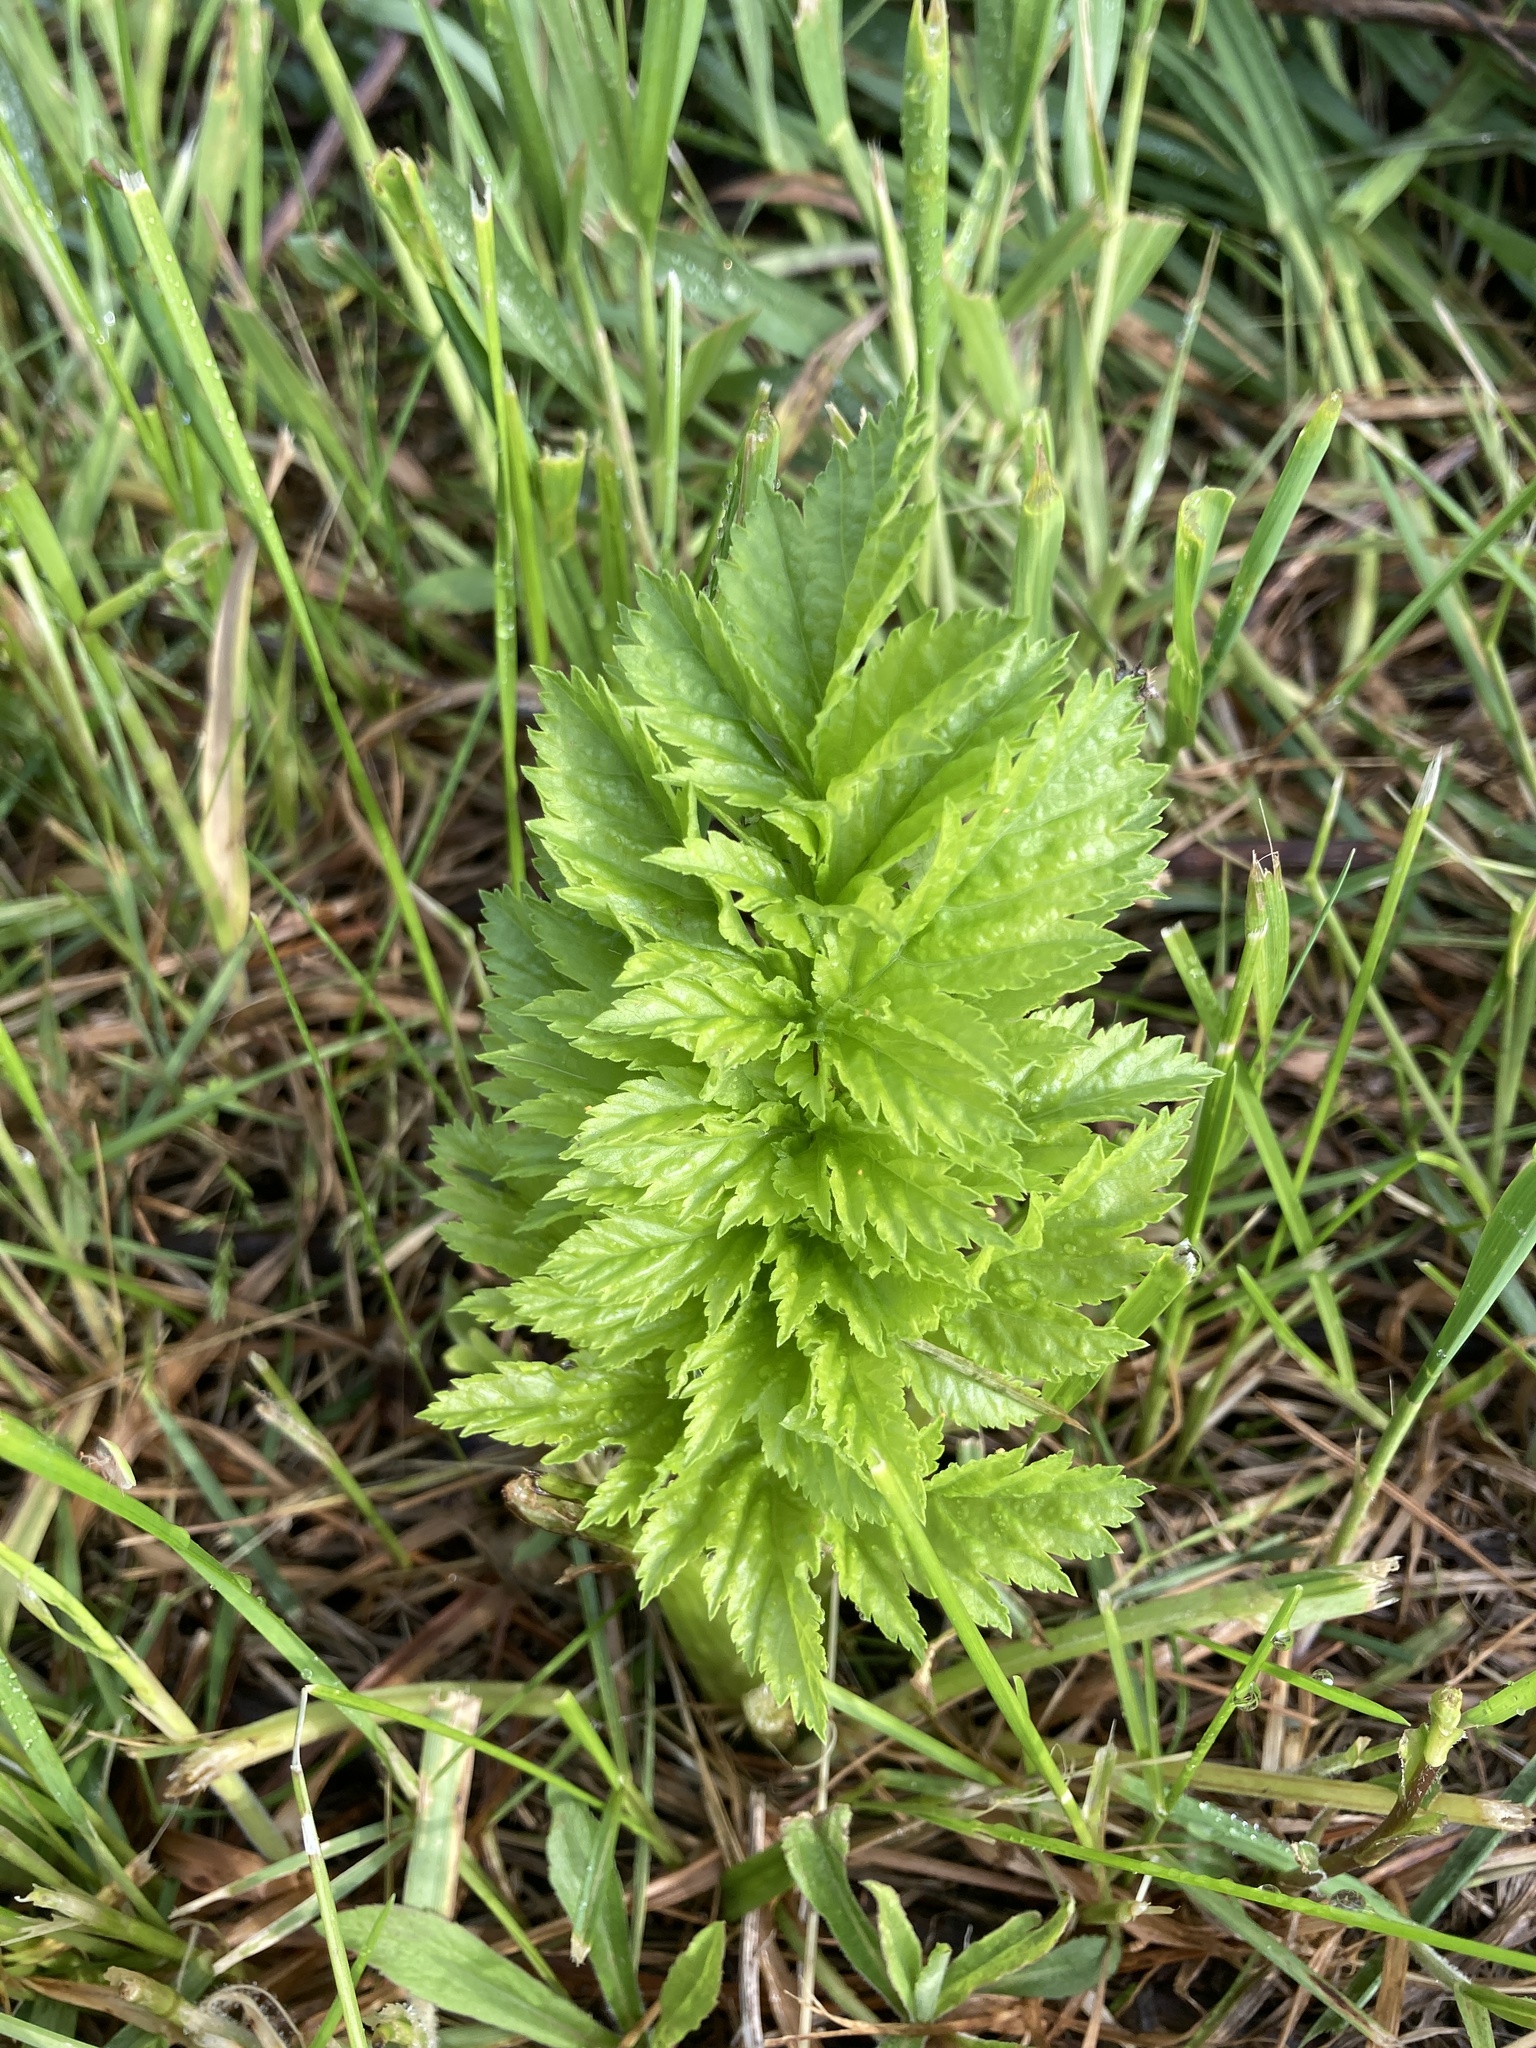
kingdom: Plantae
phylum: Tracheophyta
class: Magnoliopsida
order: Apiales
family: Apiaceae
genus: Pastinaca
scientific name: Pastinaca sativa
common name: Wild parsnip
